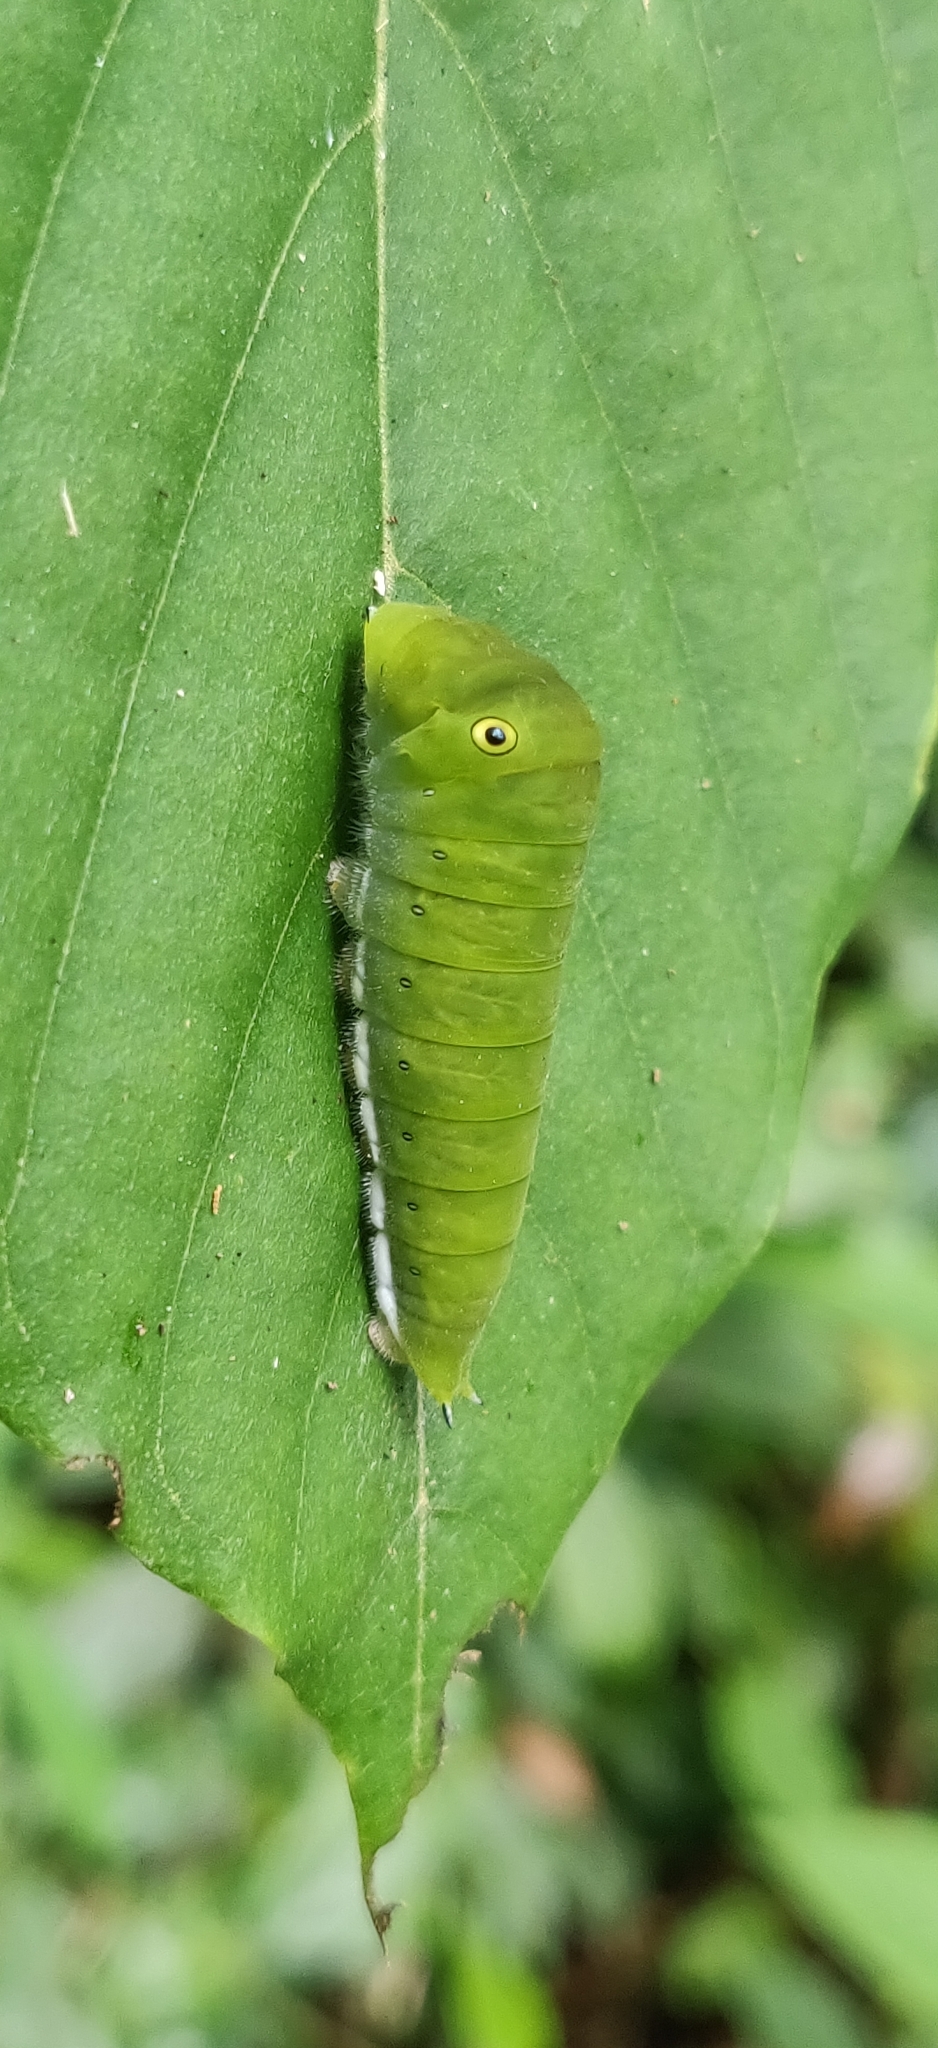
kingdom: Animalia
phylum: Arthropoda
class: Insecta
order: Lepidoptera
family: Papilionidae
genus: Graphium
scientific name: Graphium doson
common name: Common jay
